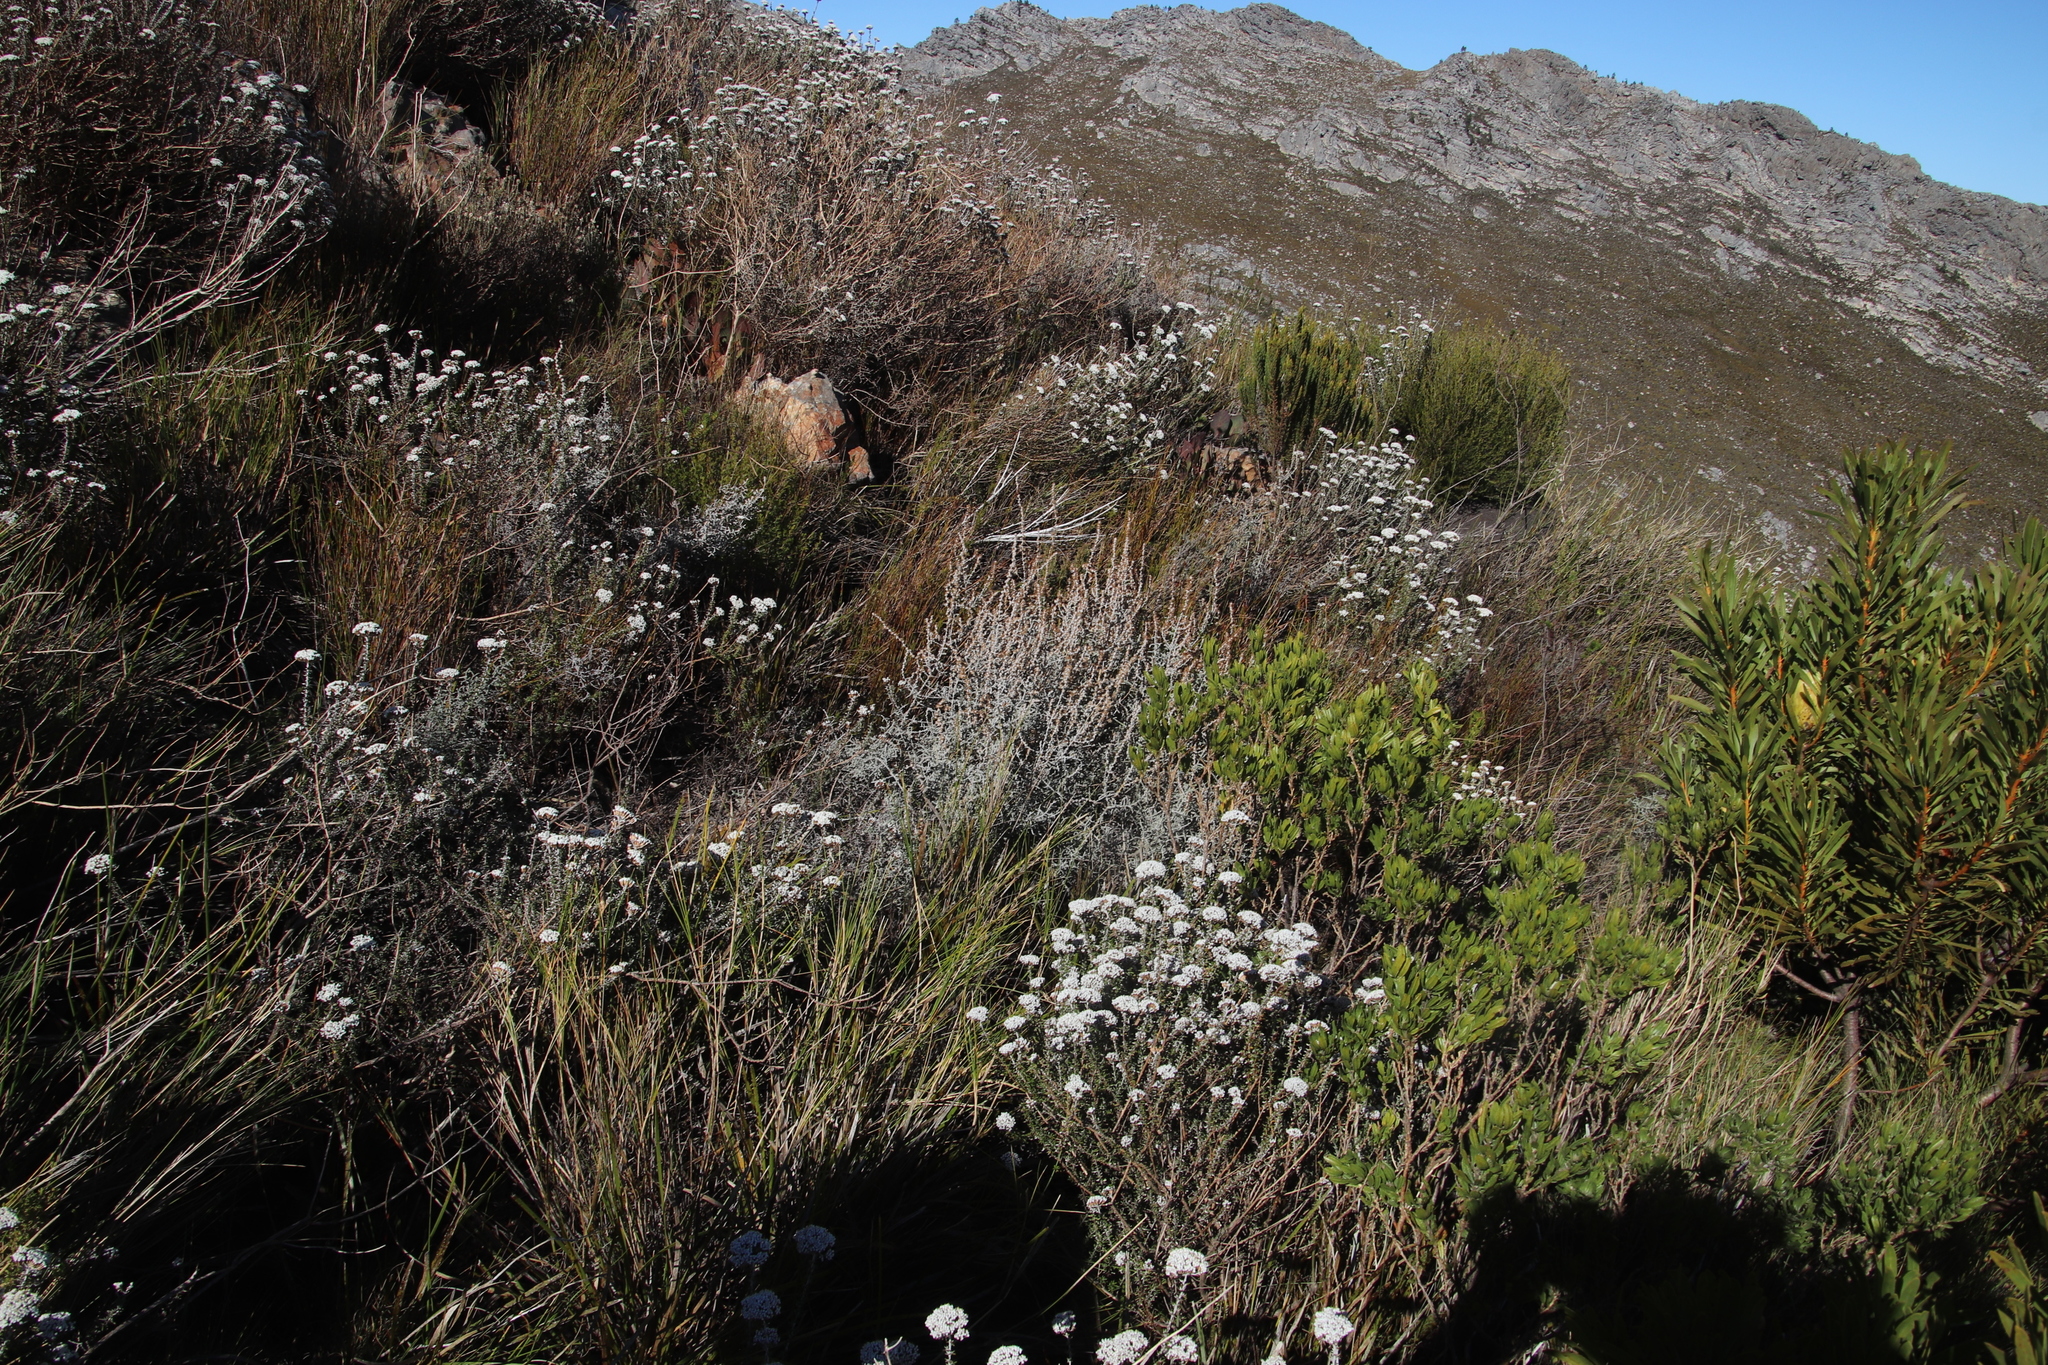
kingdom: Plantae
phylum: Tracheophyta
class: Magnoliopsida
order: Asterales
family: Asteraceae
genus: Seriphium
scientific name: Seriphium plumosum
